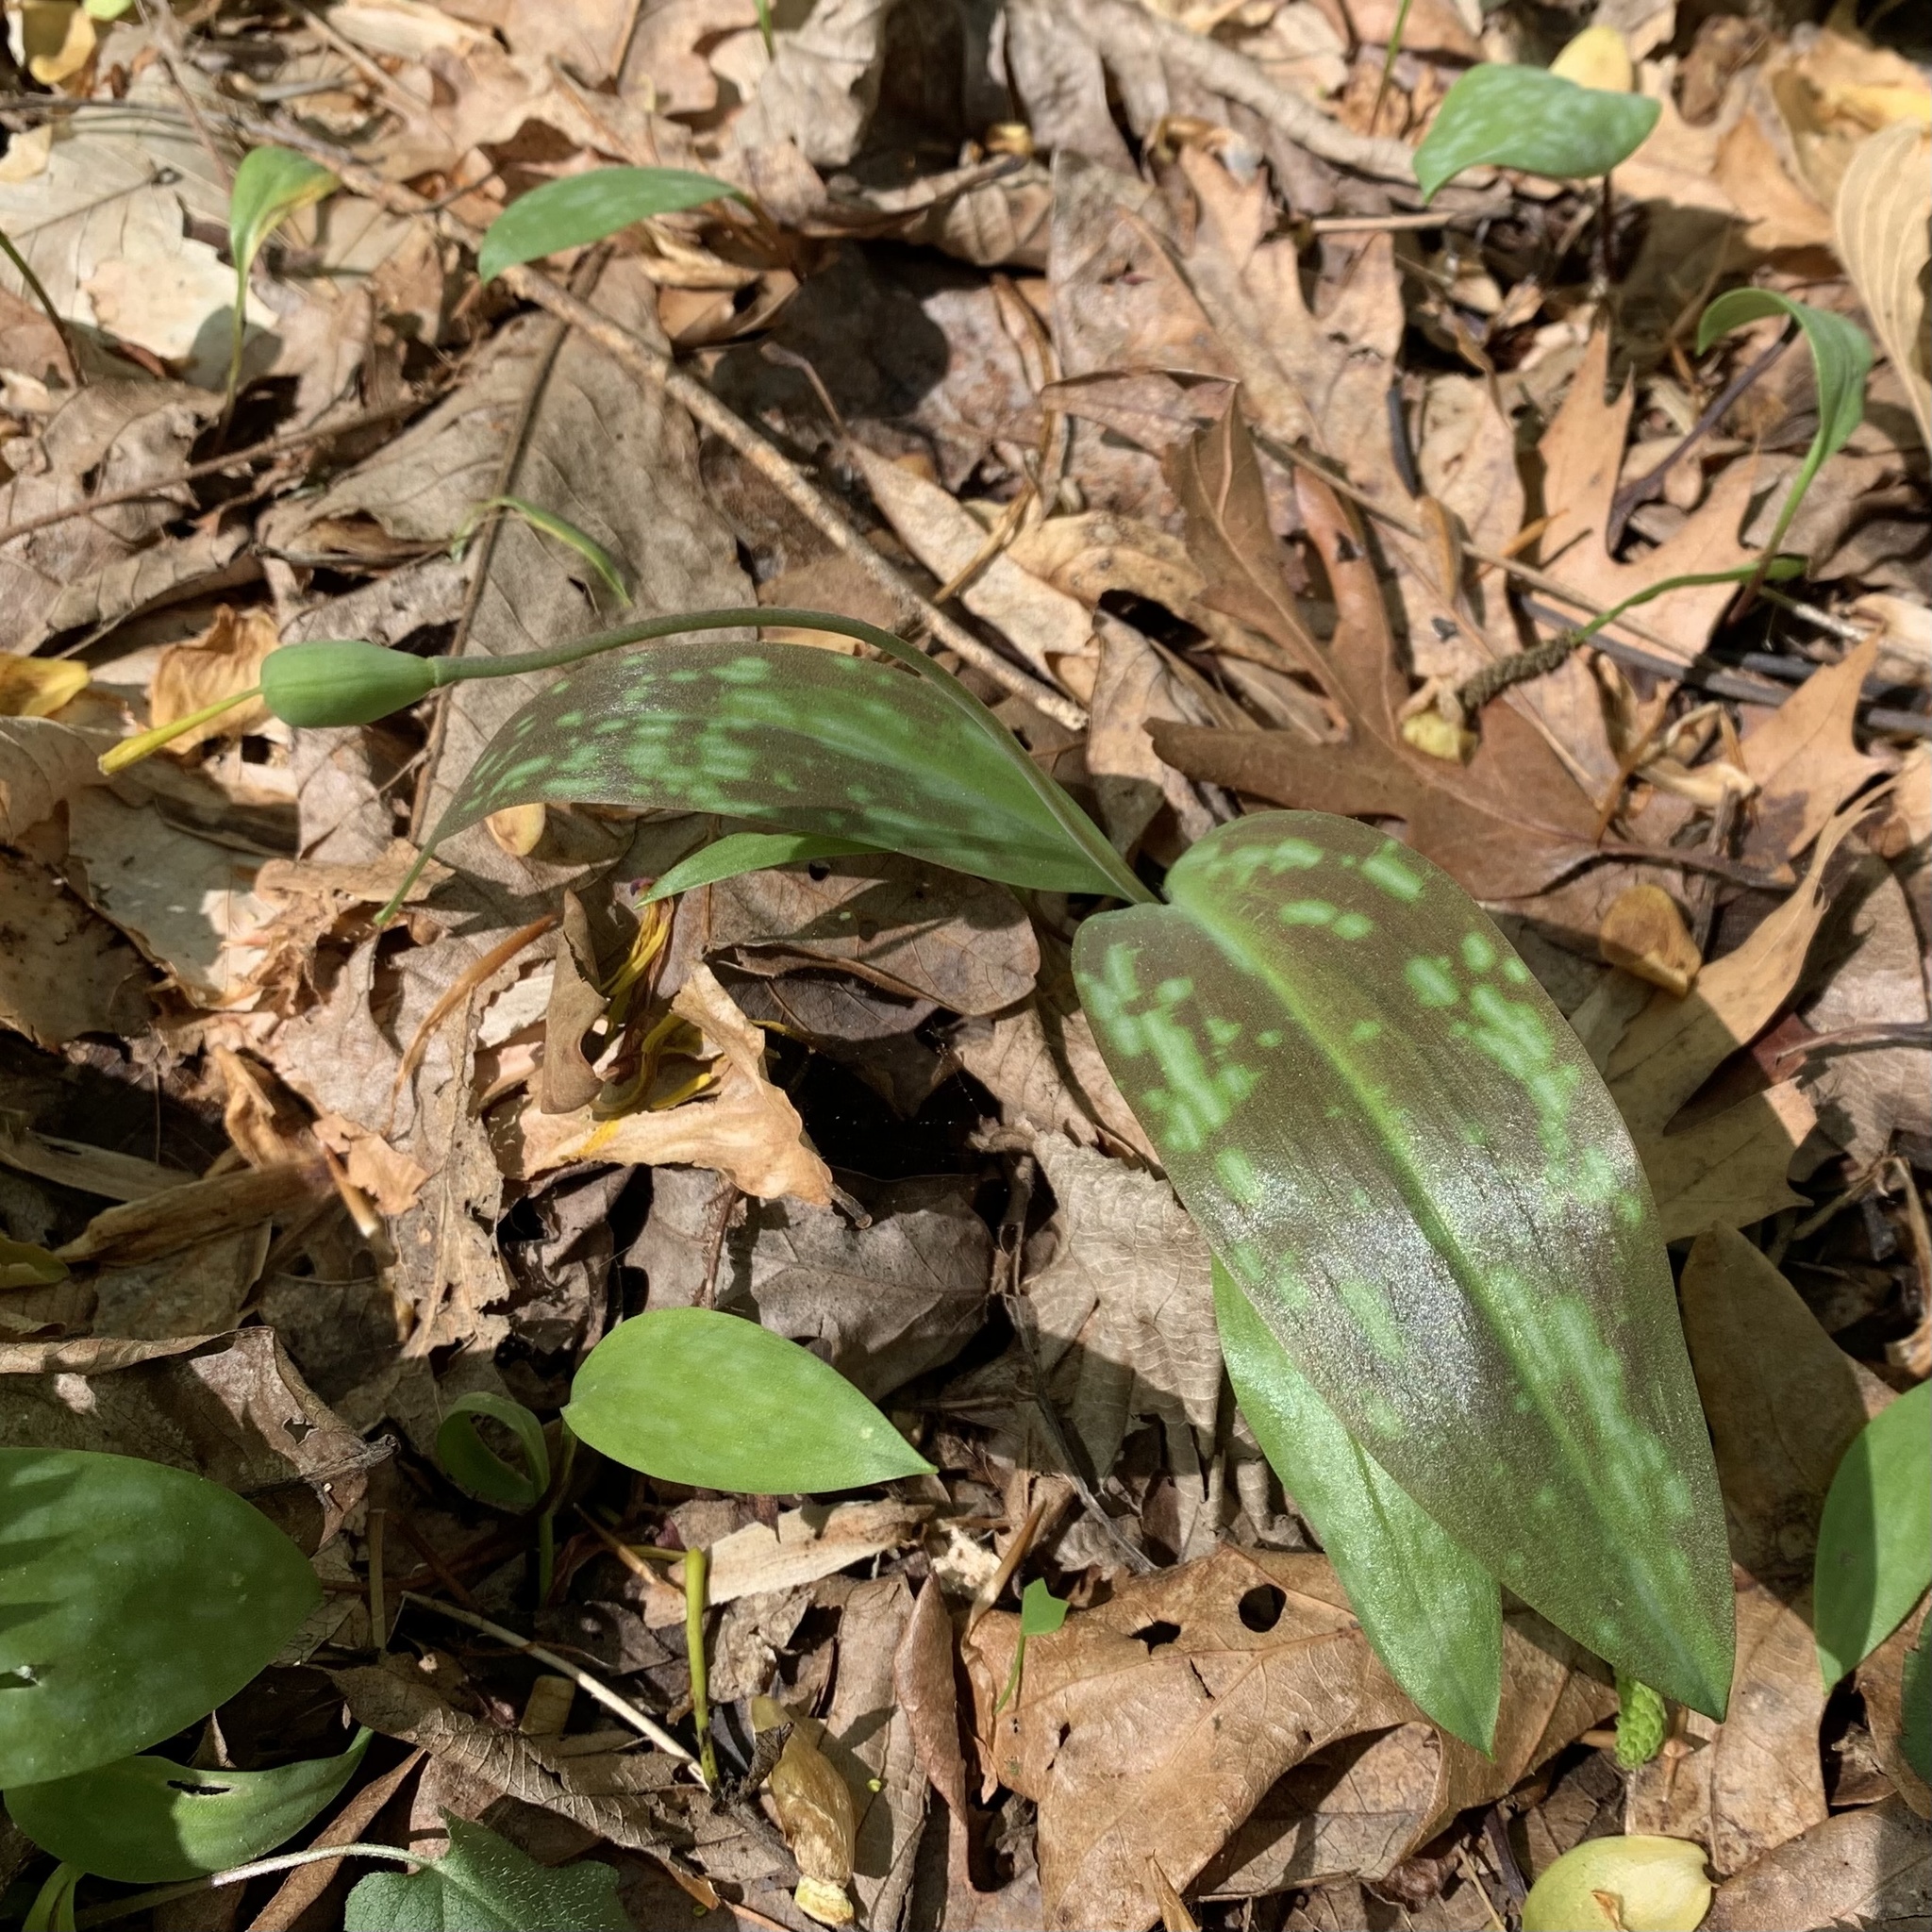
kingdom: Plantae
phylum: Tracheophyta
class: Liliopsida
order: Liliales
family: Liliaceae
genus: Erythronium
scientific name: Erythronium americanum
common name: Yellow adder's-tongue
